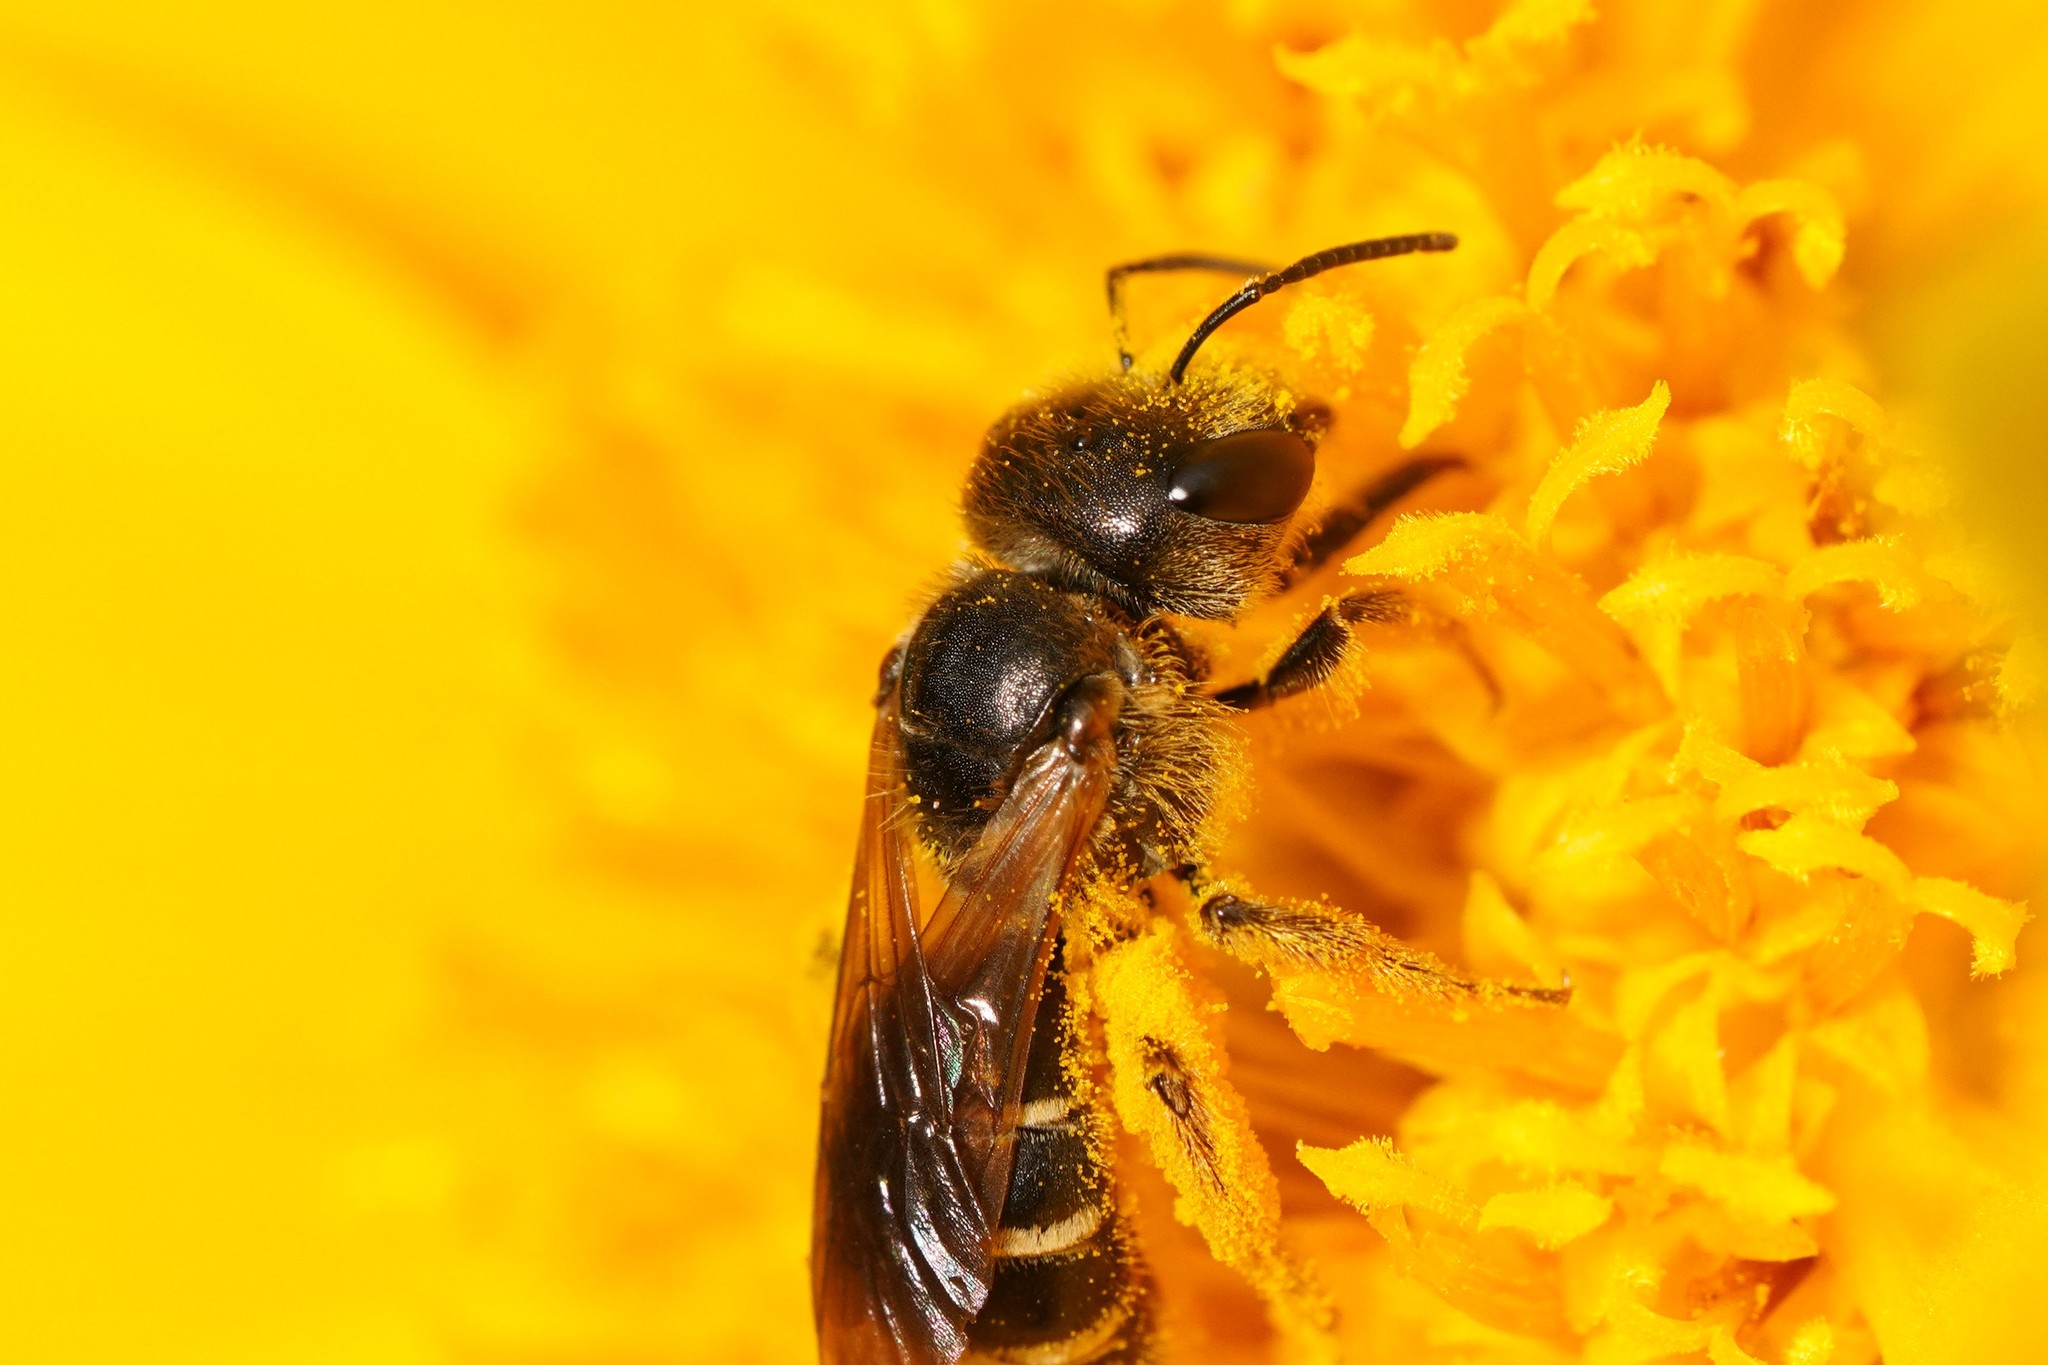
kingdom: Animalia
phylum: Arthropoda
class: Insecta
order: Hymenoptera
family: Halictidae
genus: Halictus
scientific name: Halictus ligatus
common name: Ligated furrow bee
